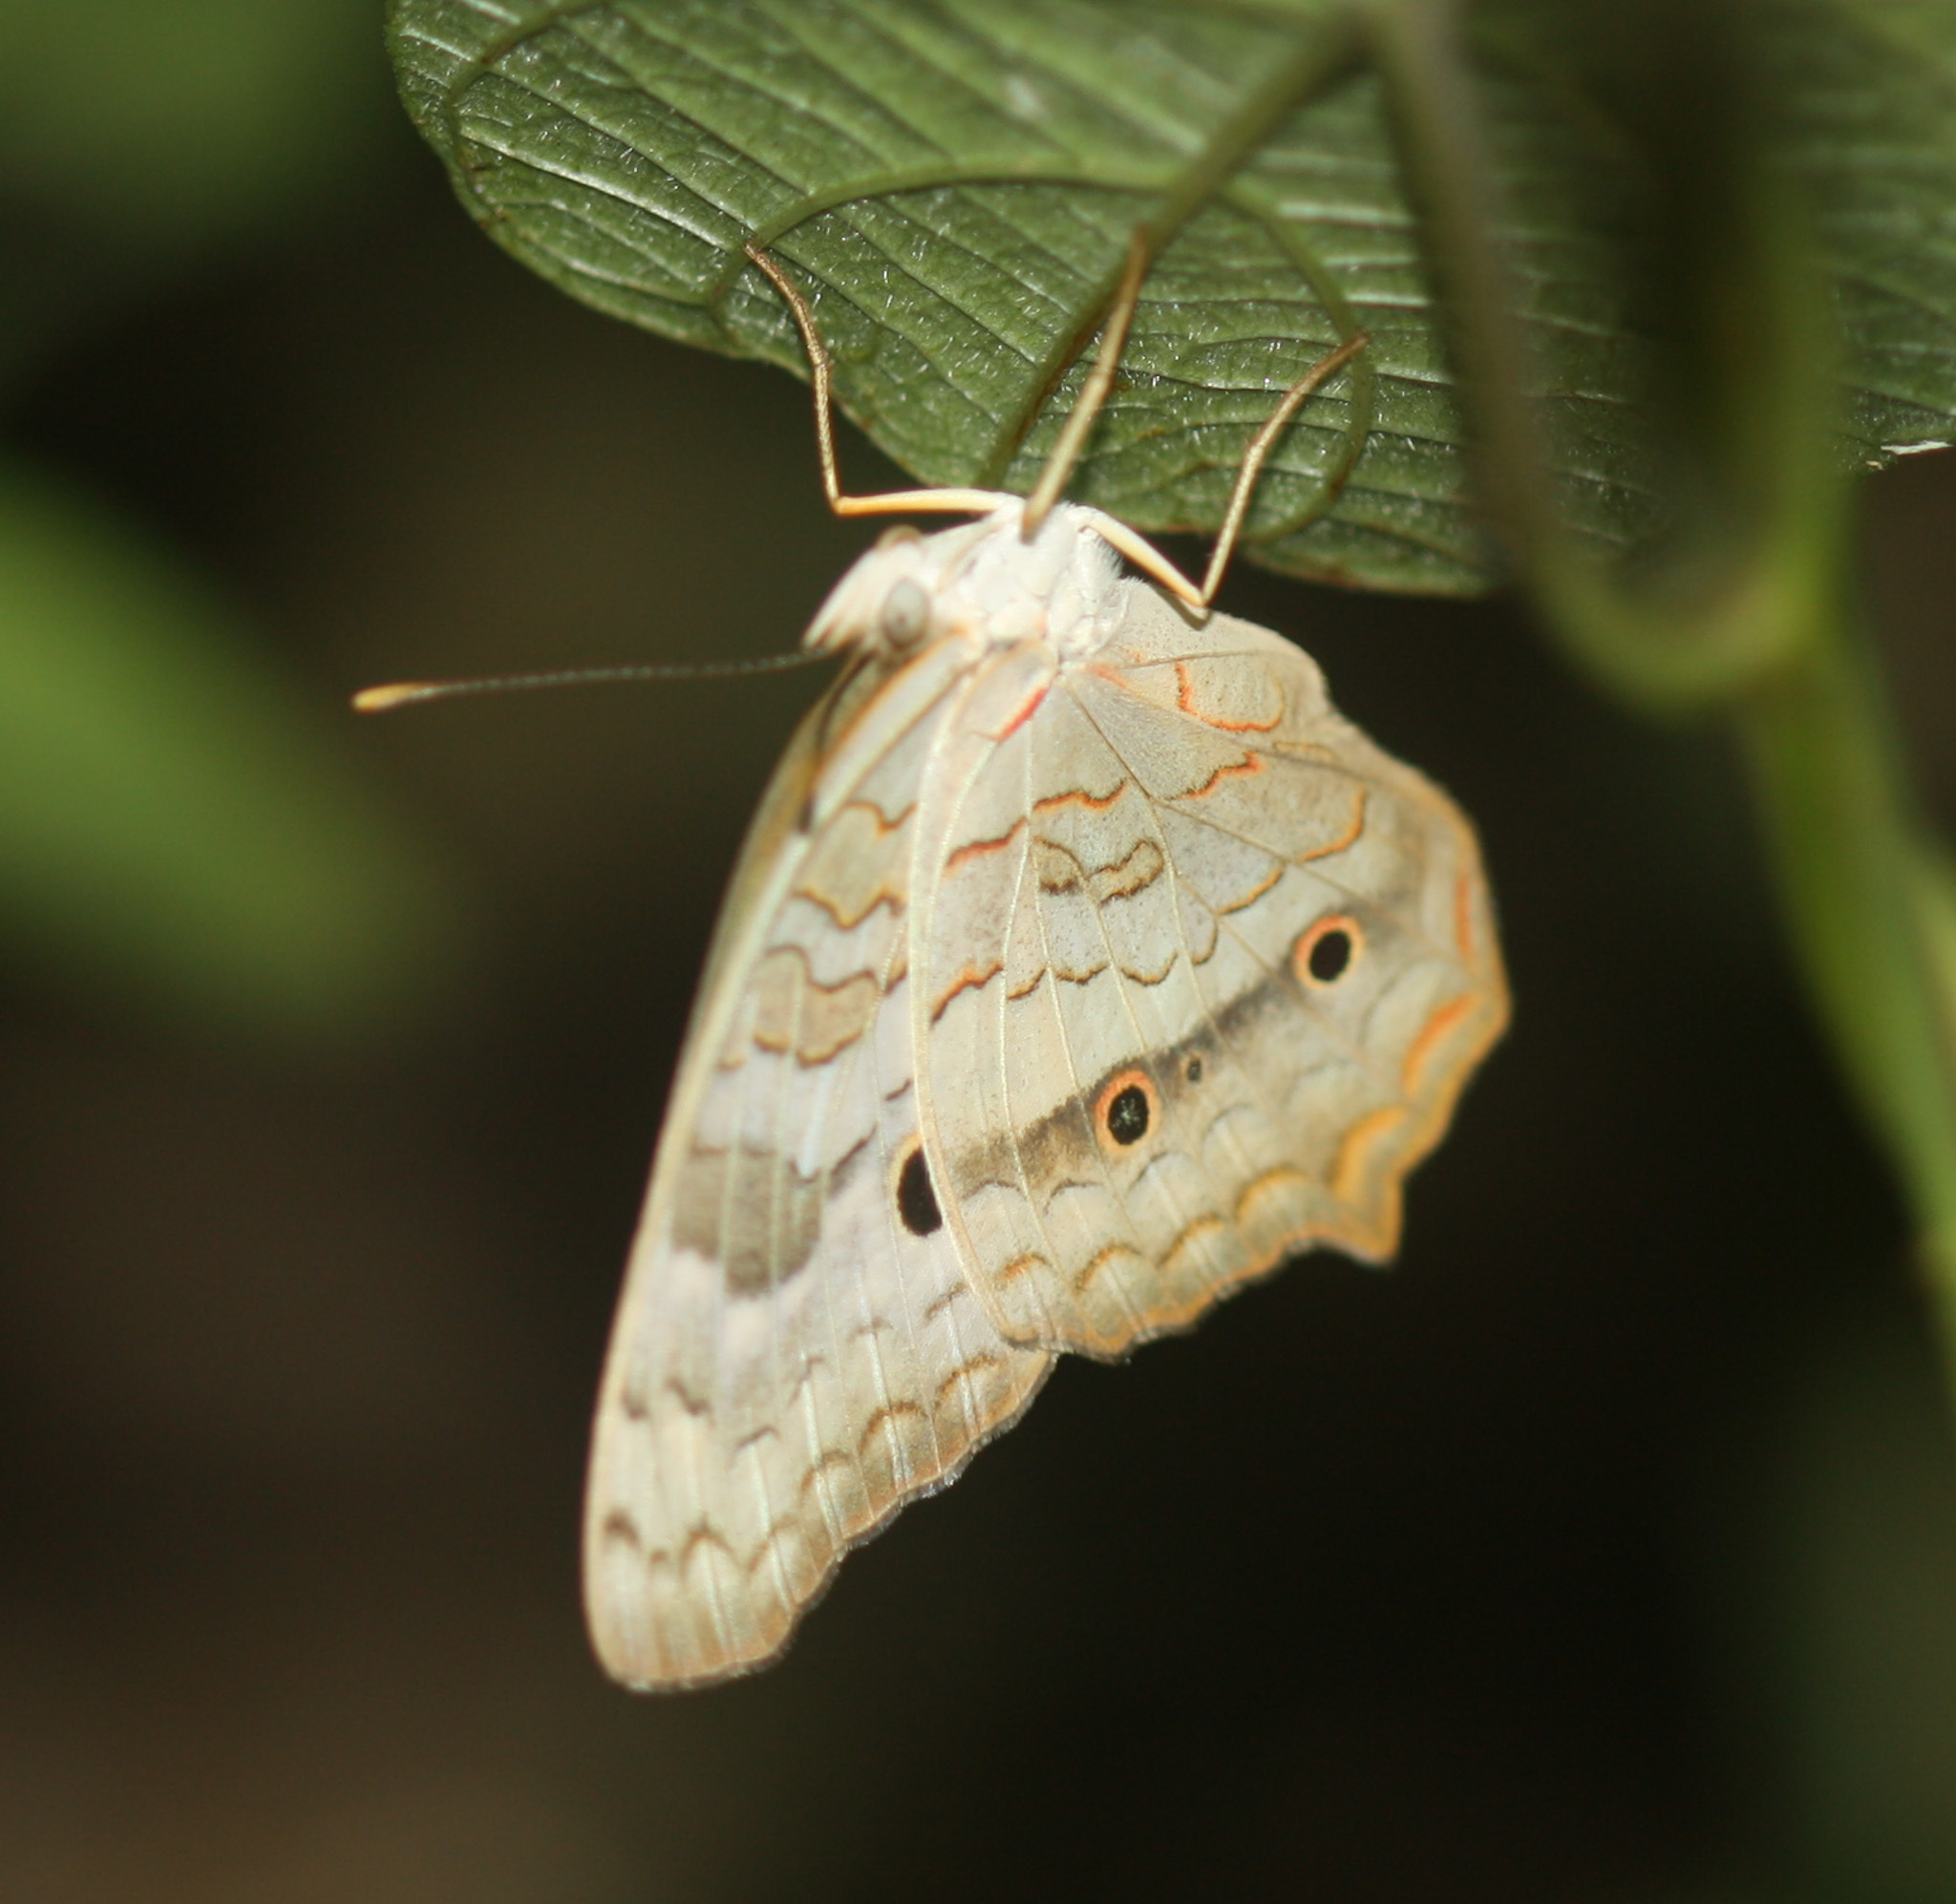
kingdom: Animalia
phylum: Arthropoda
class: Insecta
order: Lepidoptera
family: Nymphalidae
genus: Anartia
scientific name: Anartia jatrophae
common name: White peacock
